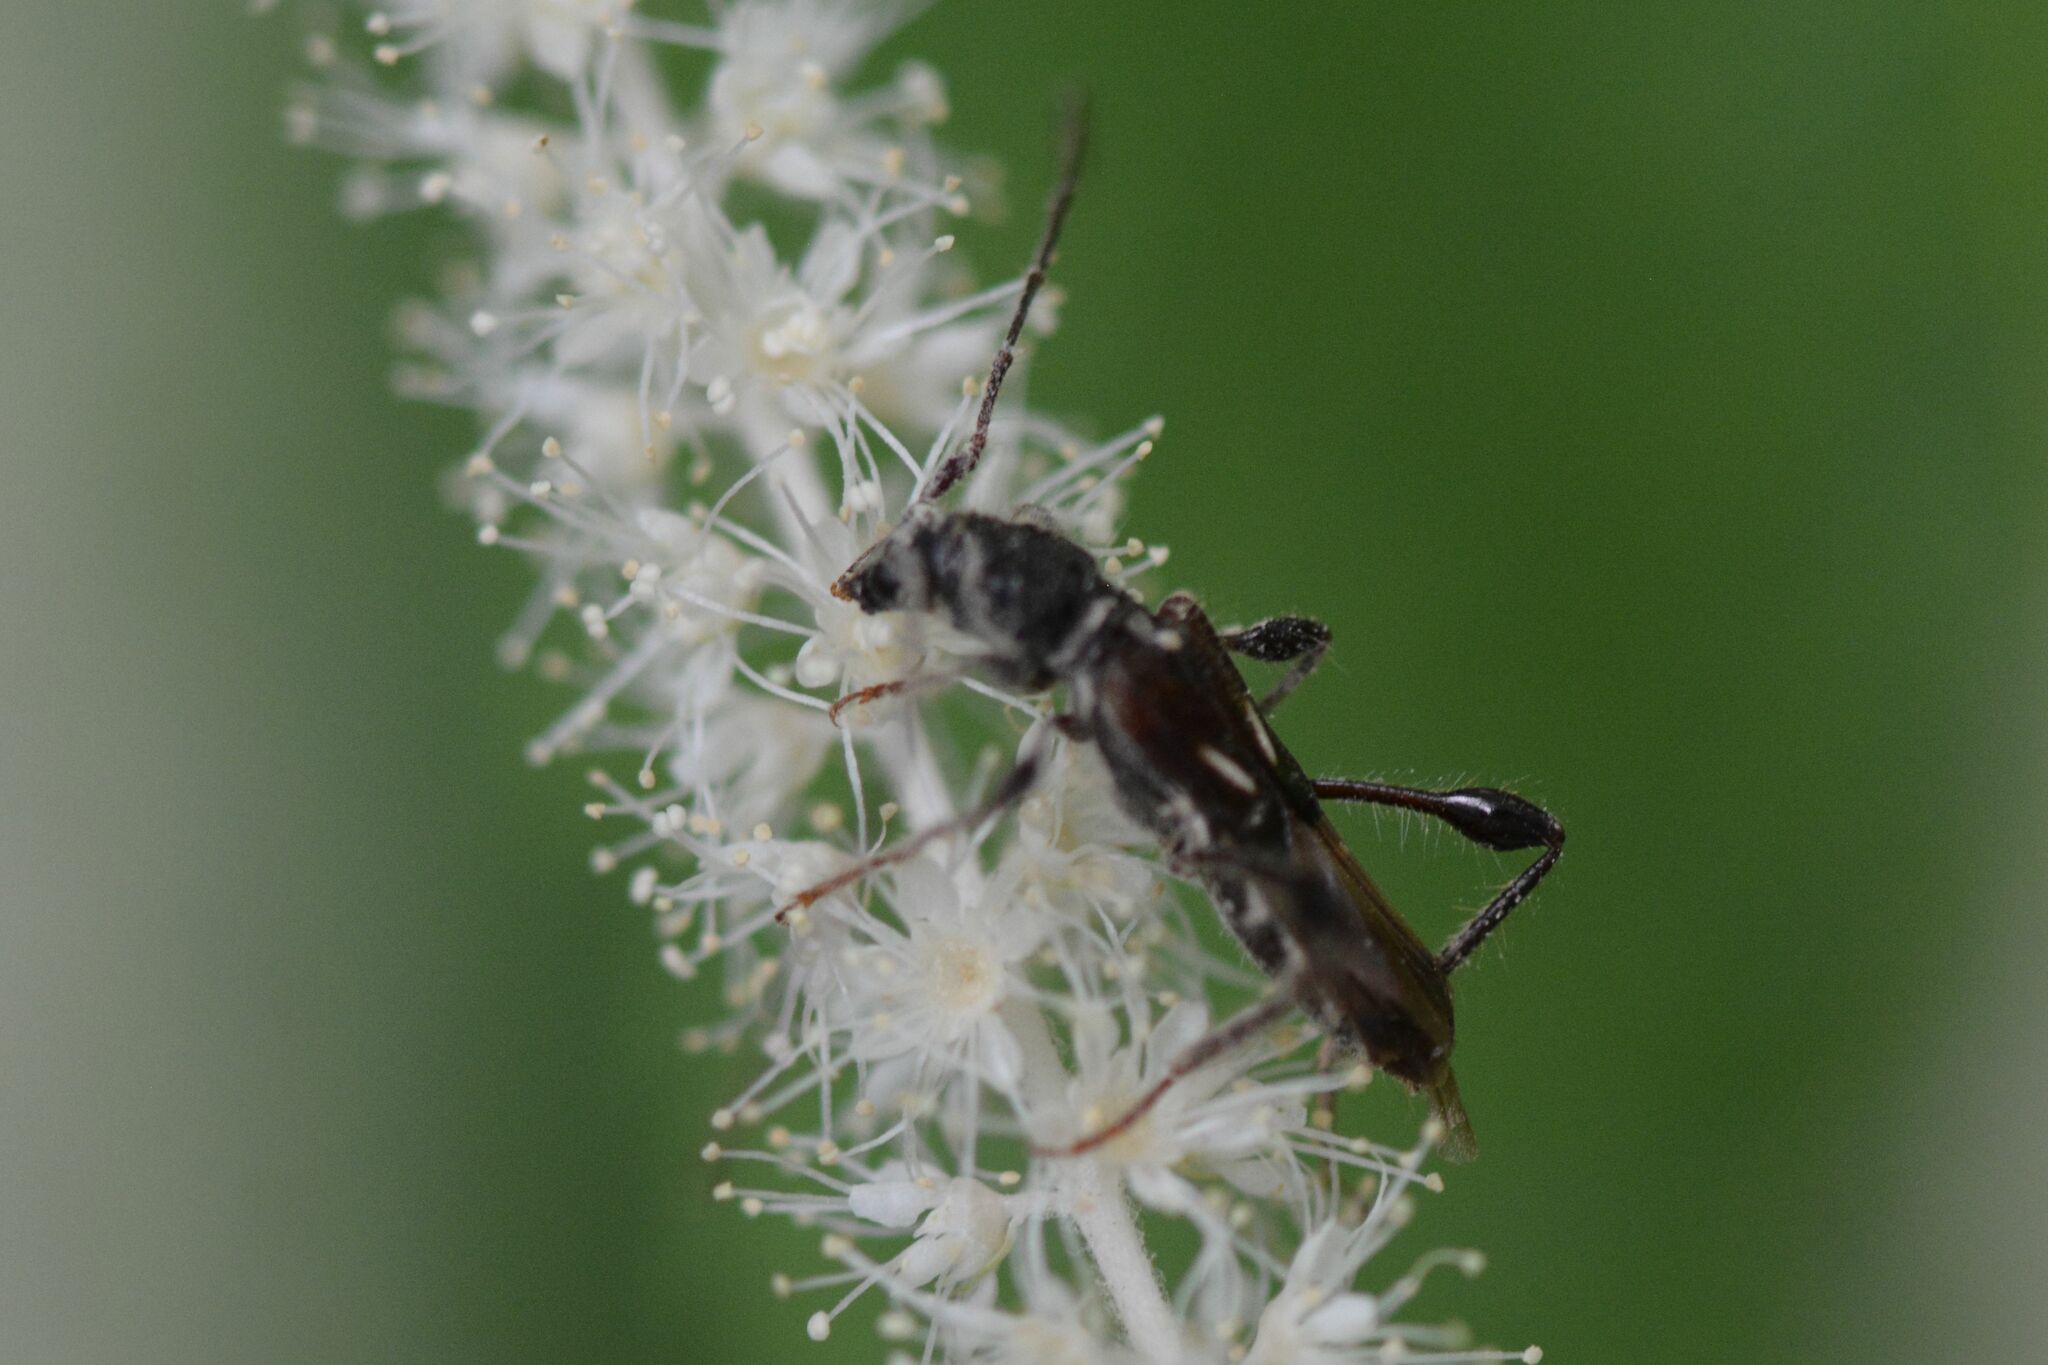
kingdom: Animalia
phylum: Arthropoda
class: Insecta
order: Coleoptera
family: Cerambycidae
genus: Molorchus
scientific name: Molorchus minor
